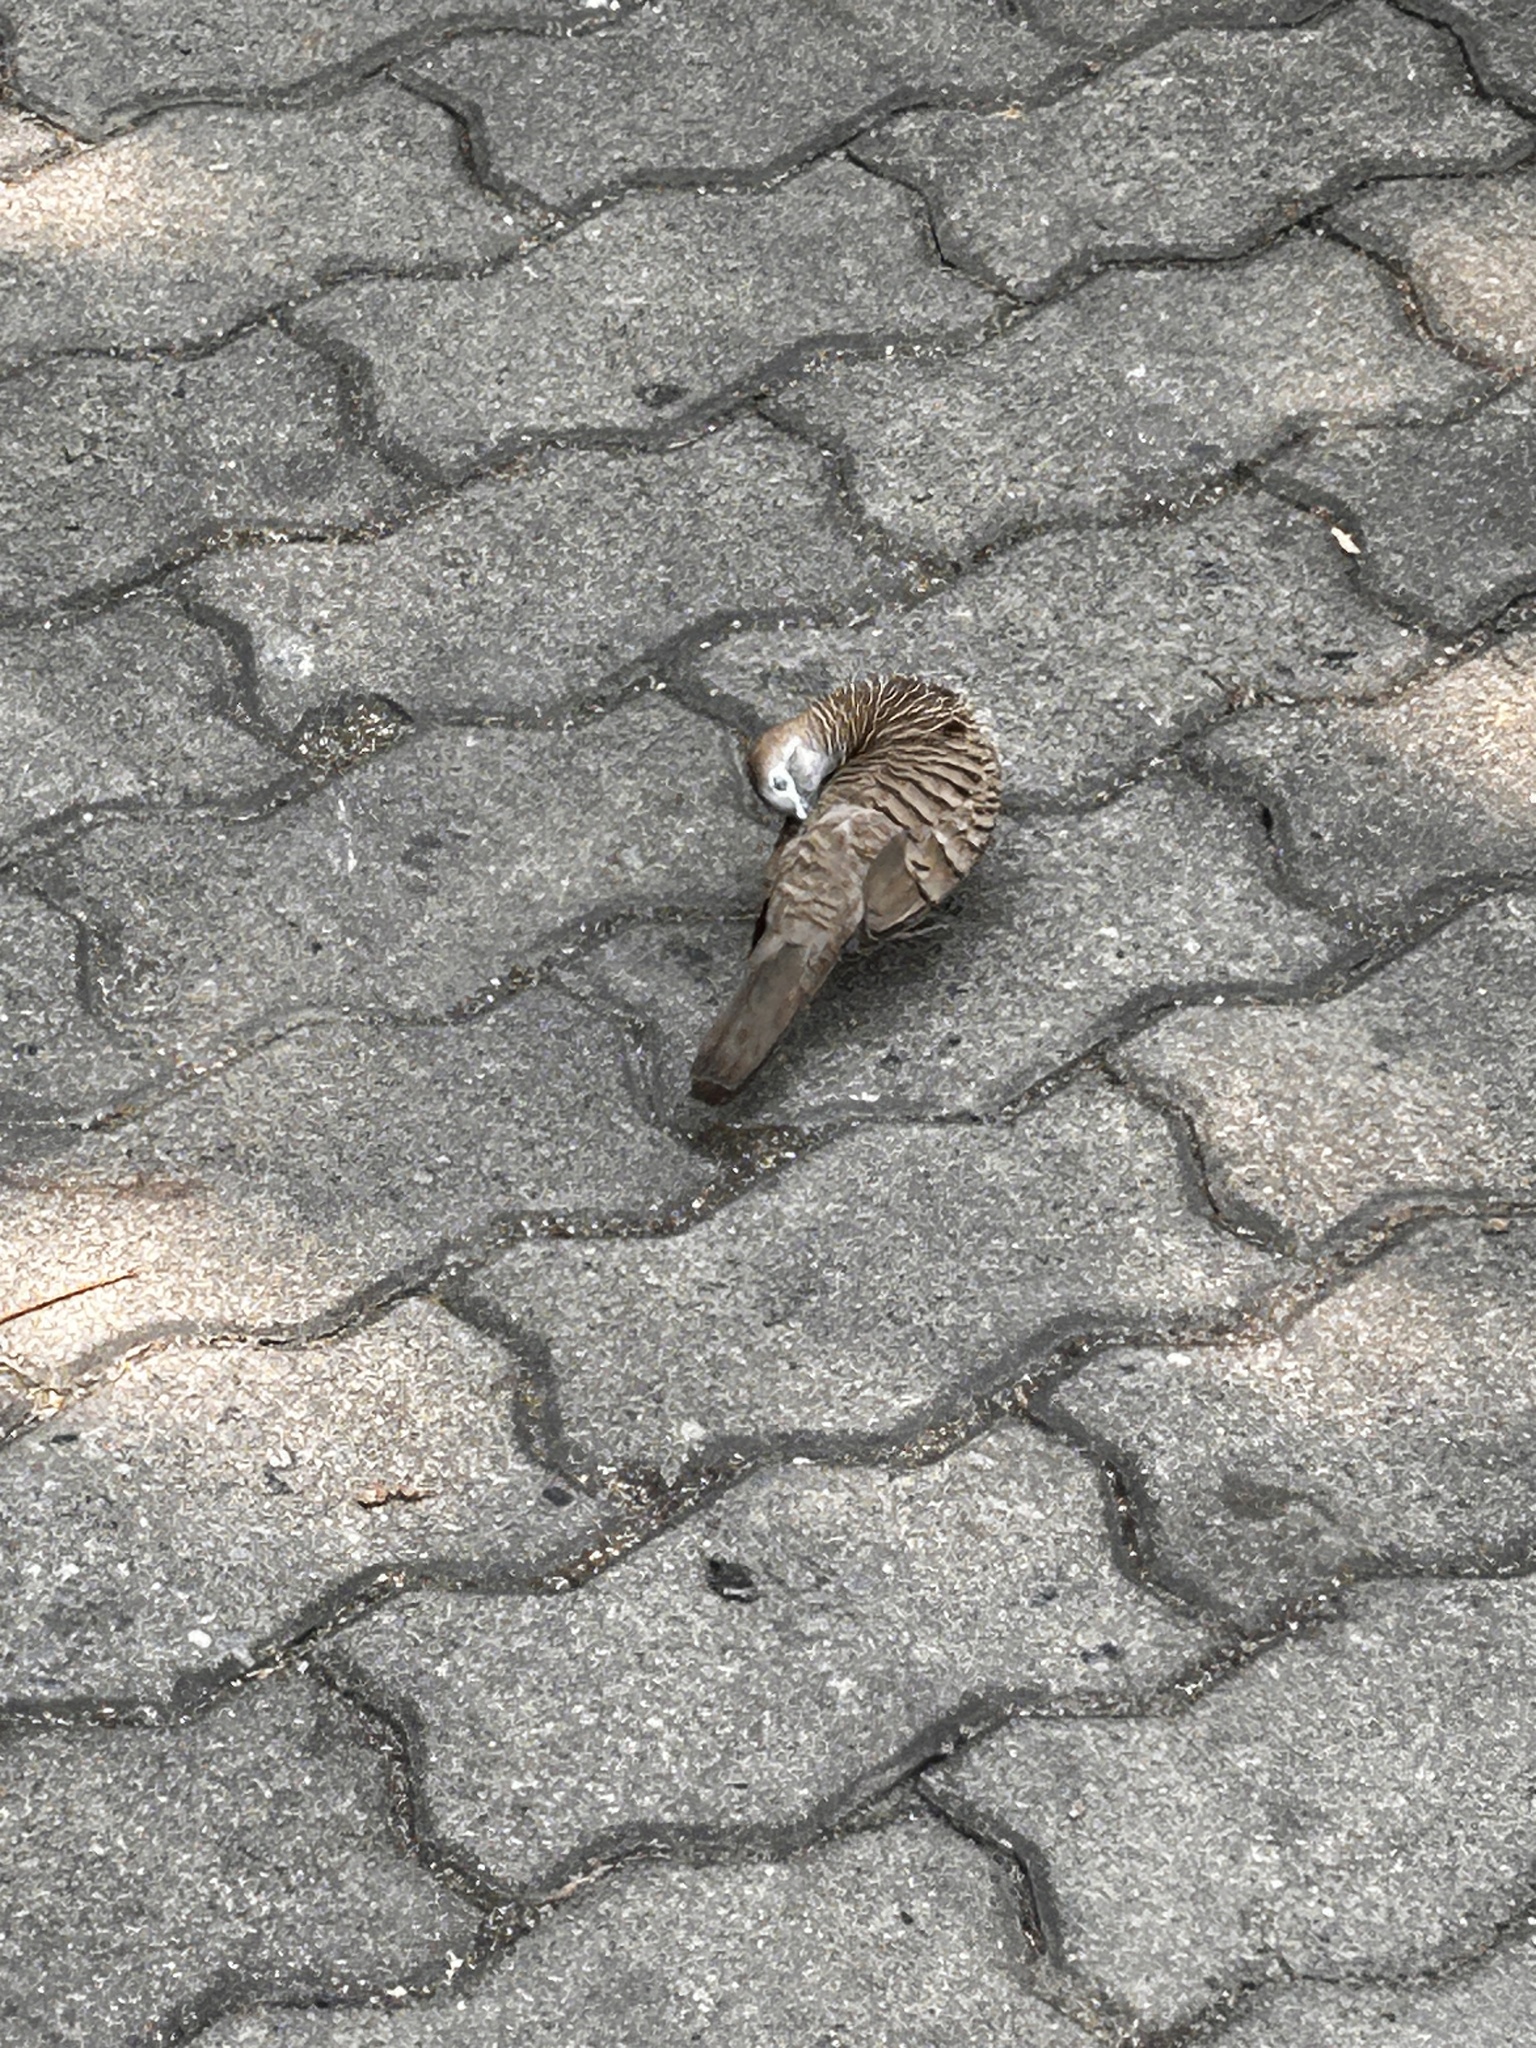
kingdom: Animalia
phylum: Chordata
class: Aves
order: Columbiformes
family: Columbidae
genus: Geopelia
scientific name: Geopelia striata
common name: Zebra dove
